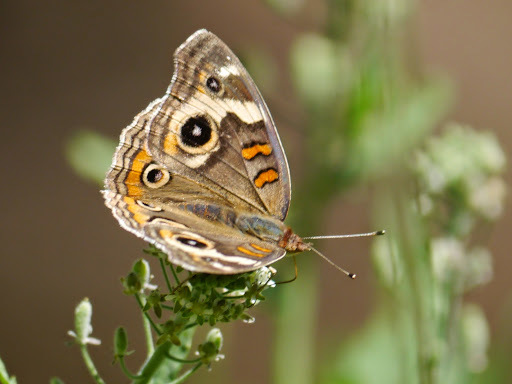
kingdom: Animalia
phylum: Arthropoda
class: Insecta
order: Lepidoptera
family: Nymphalidae
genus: Junonia
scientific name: Junonia grisea
